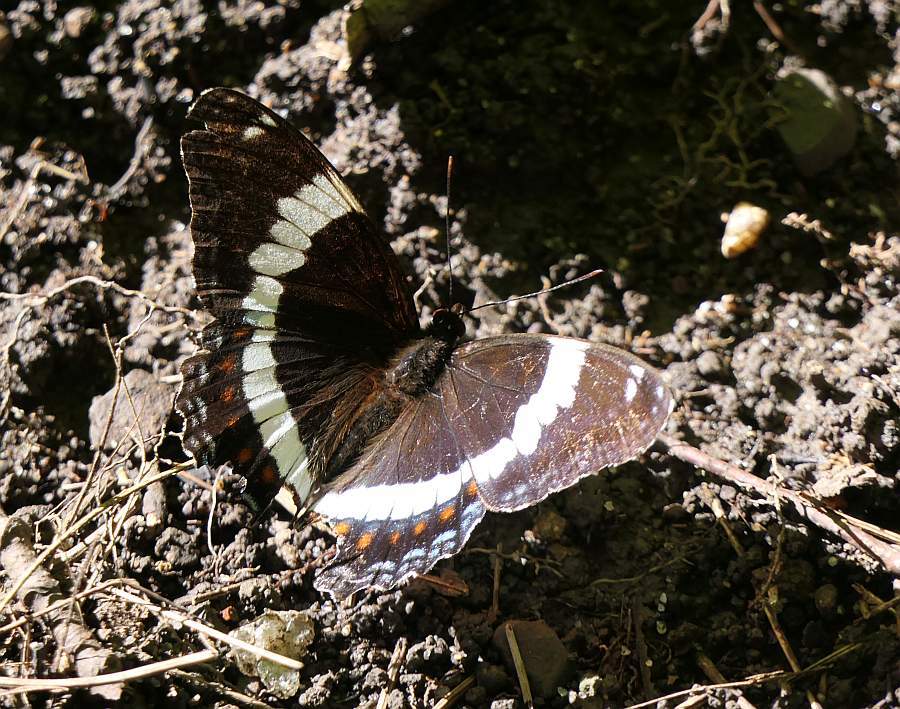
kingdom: Animalia
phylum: Arthropoda
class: Insecta
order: Lepidoptera
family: Nymphalidae
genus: Limenitis
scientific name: Limenitis arthemis
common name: Red-spotted admiral
